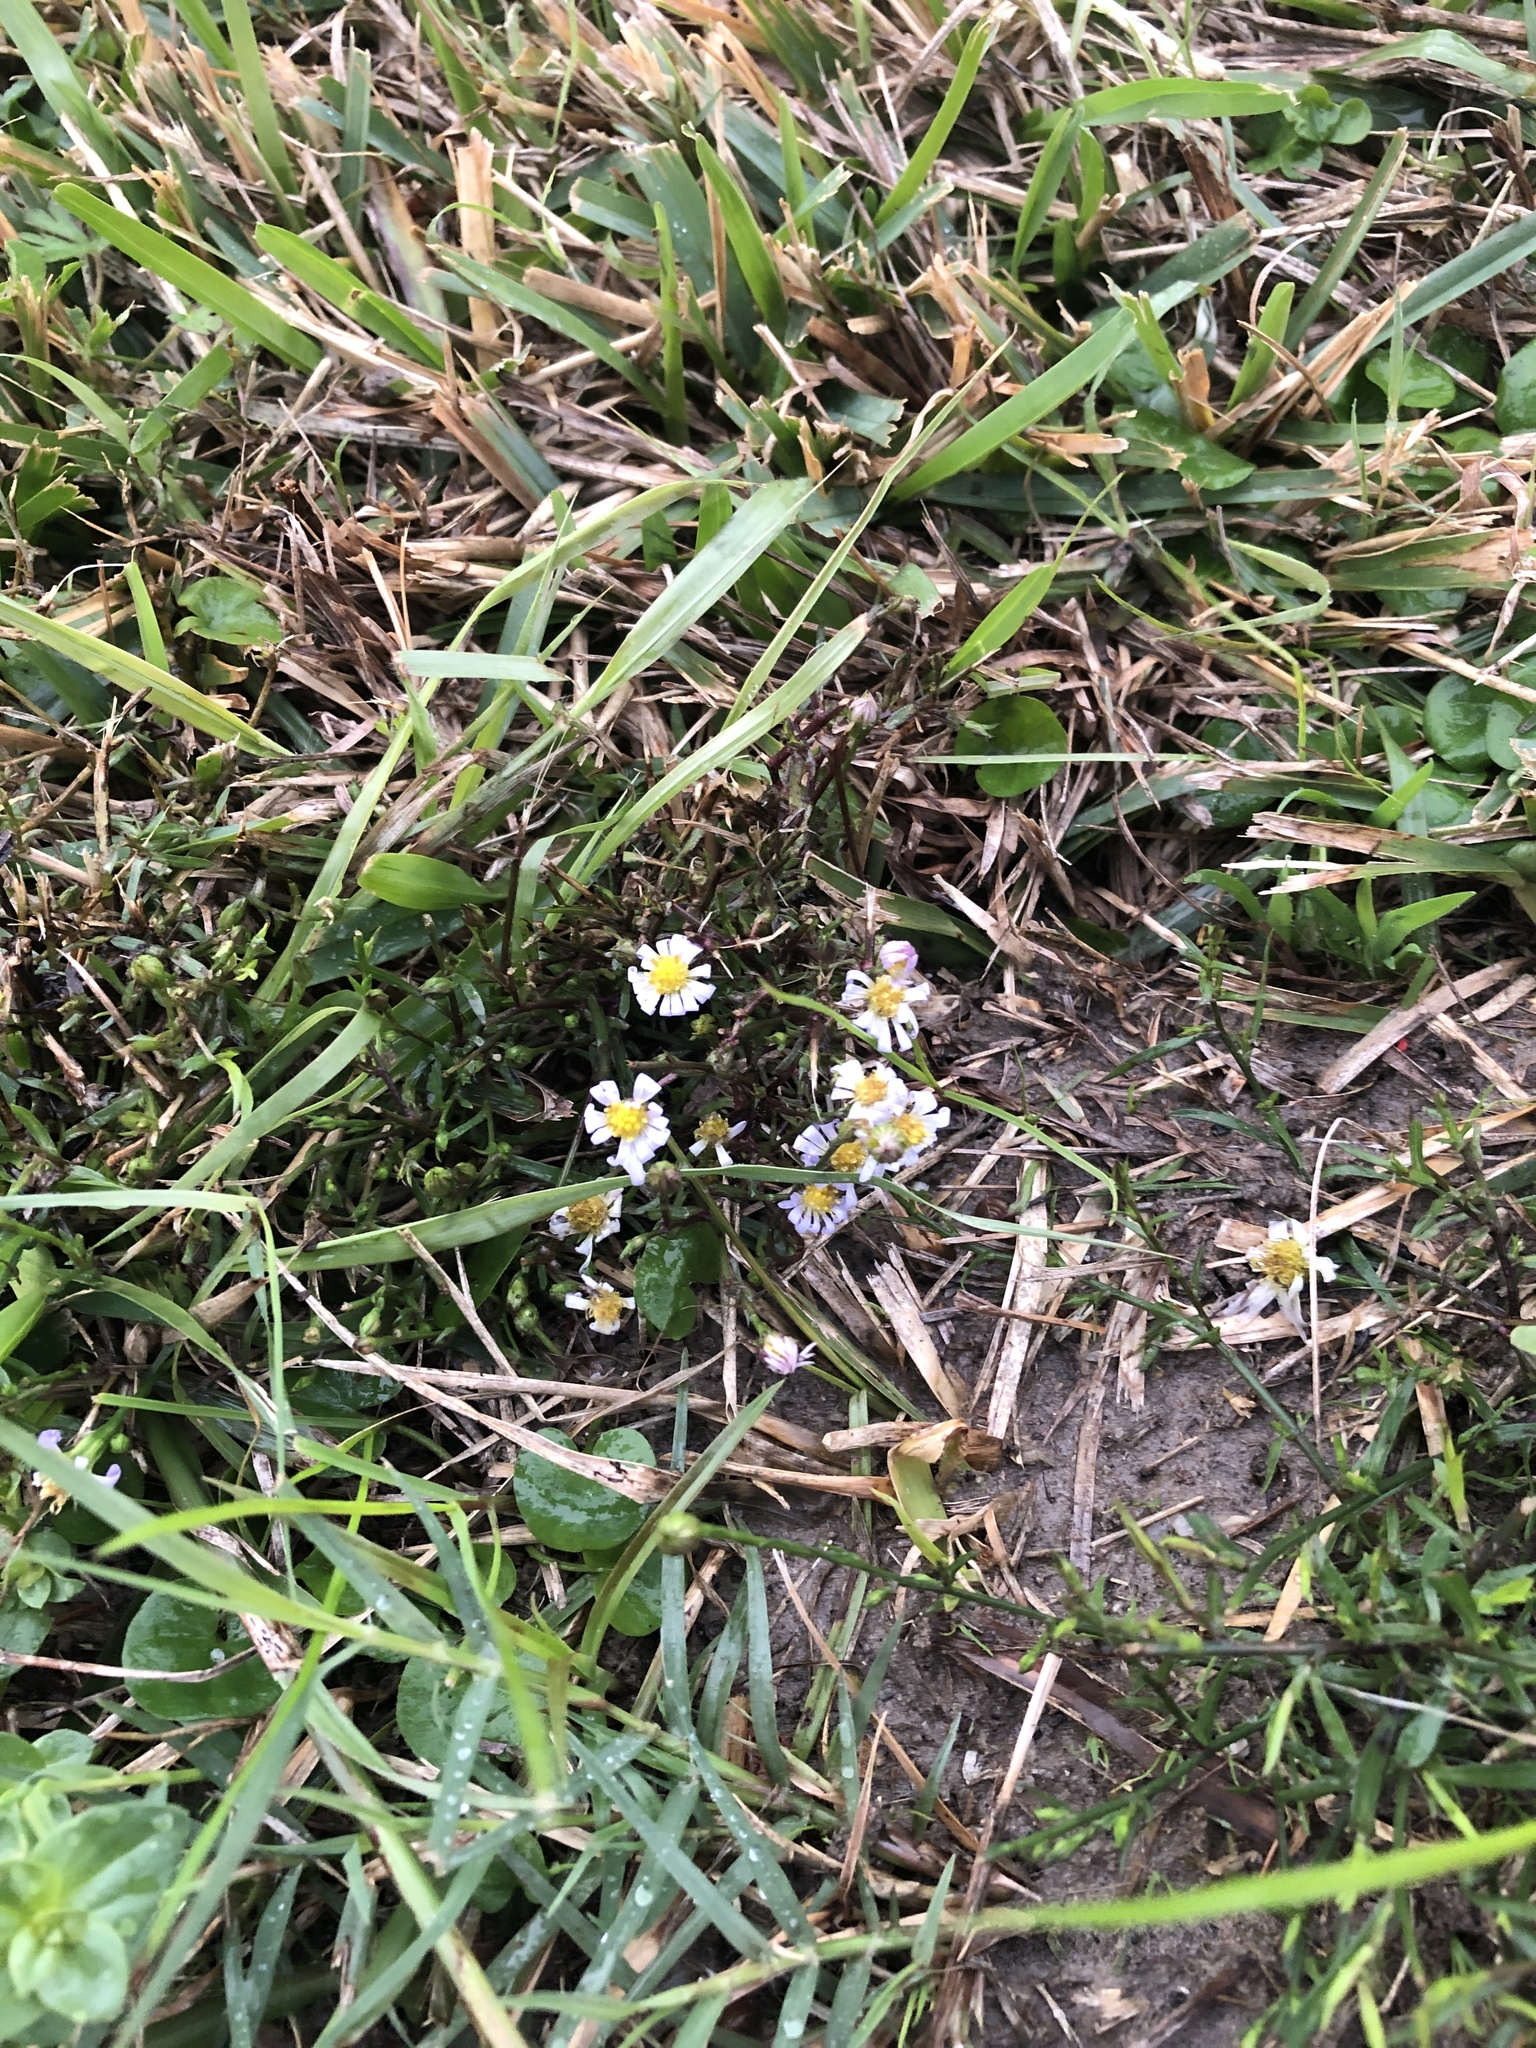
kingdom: Plantae
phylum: Tracheophyta
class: Magnoliopsida
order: Asterales
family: Asteraceae
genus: Symphyotrichum
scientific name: Symphyotrichum divaricatum
